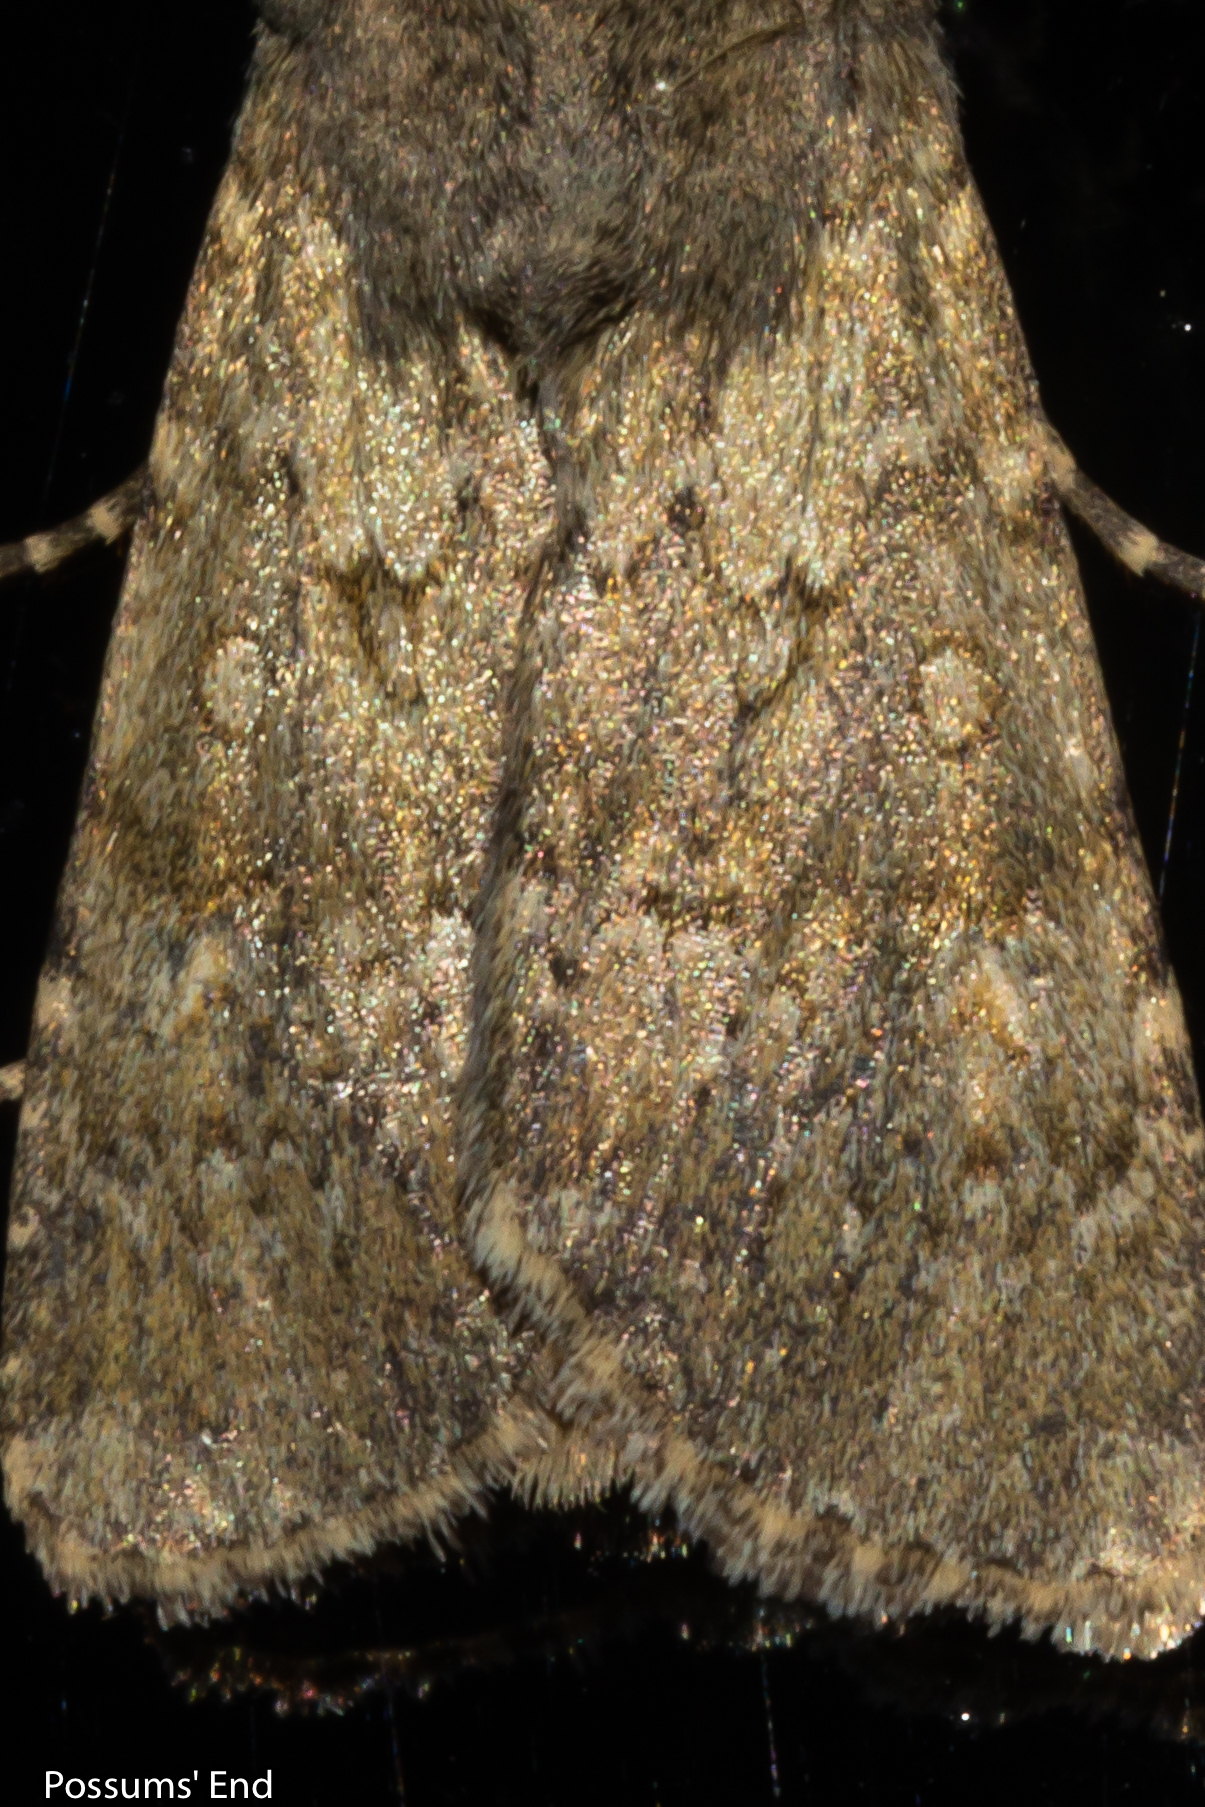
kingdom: Animalia
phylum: Arthropoda
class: Insecta
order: Lepidoptera
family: Noctuidae
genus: Ichneutica
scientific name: Ichneutica moderata
